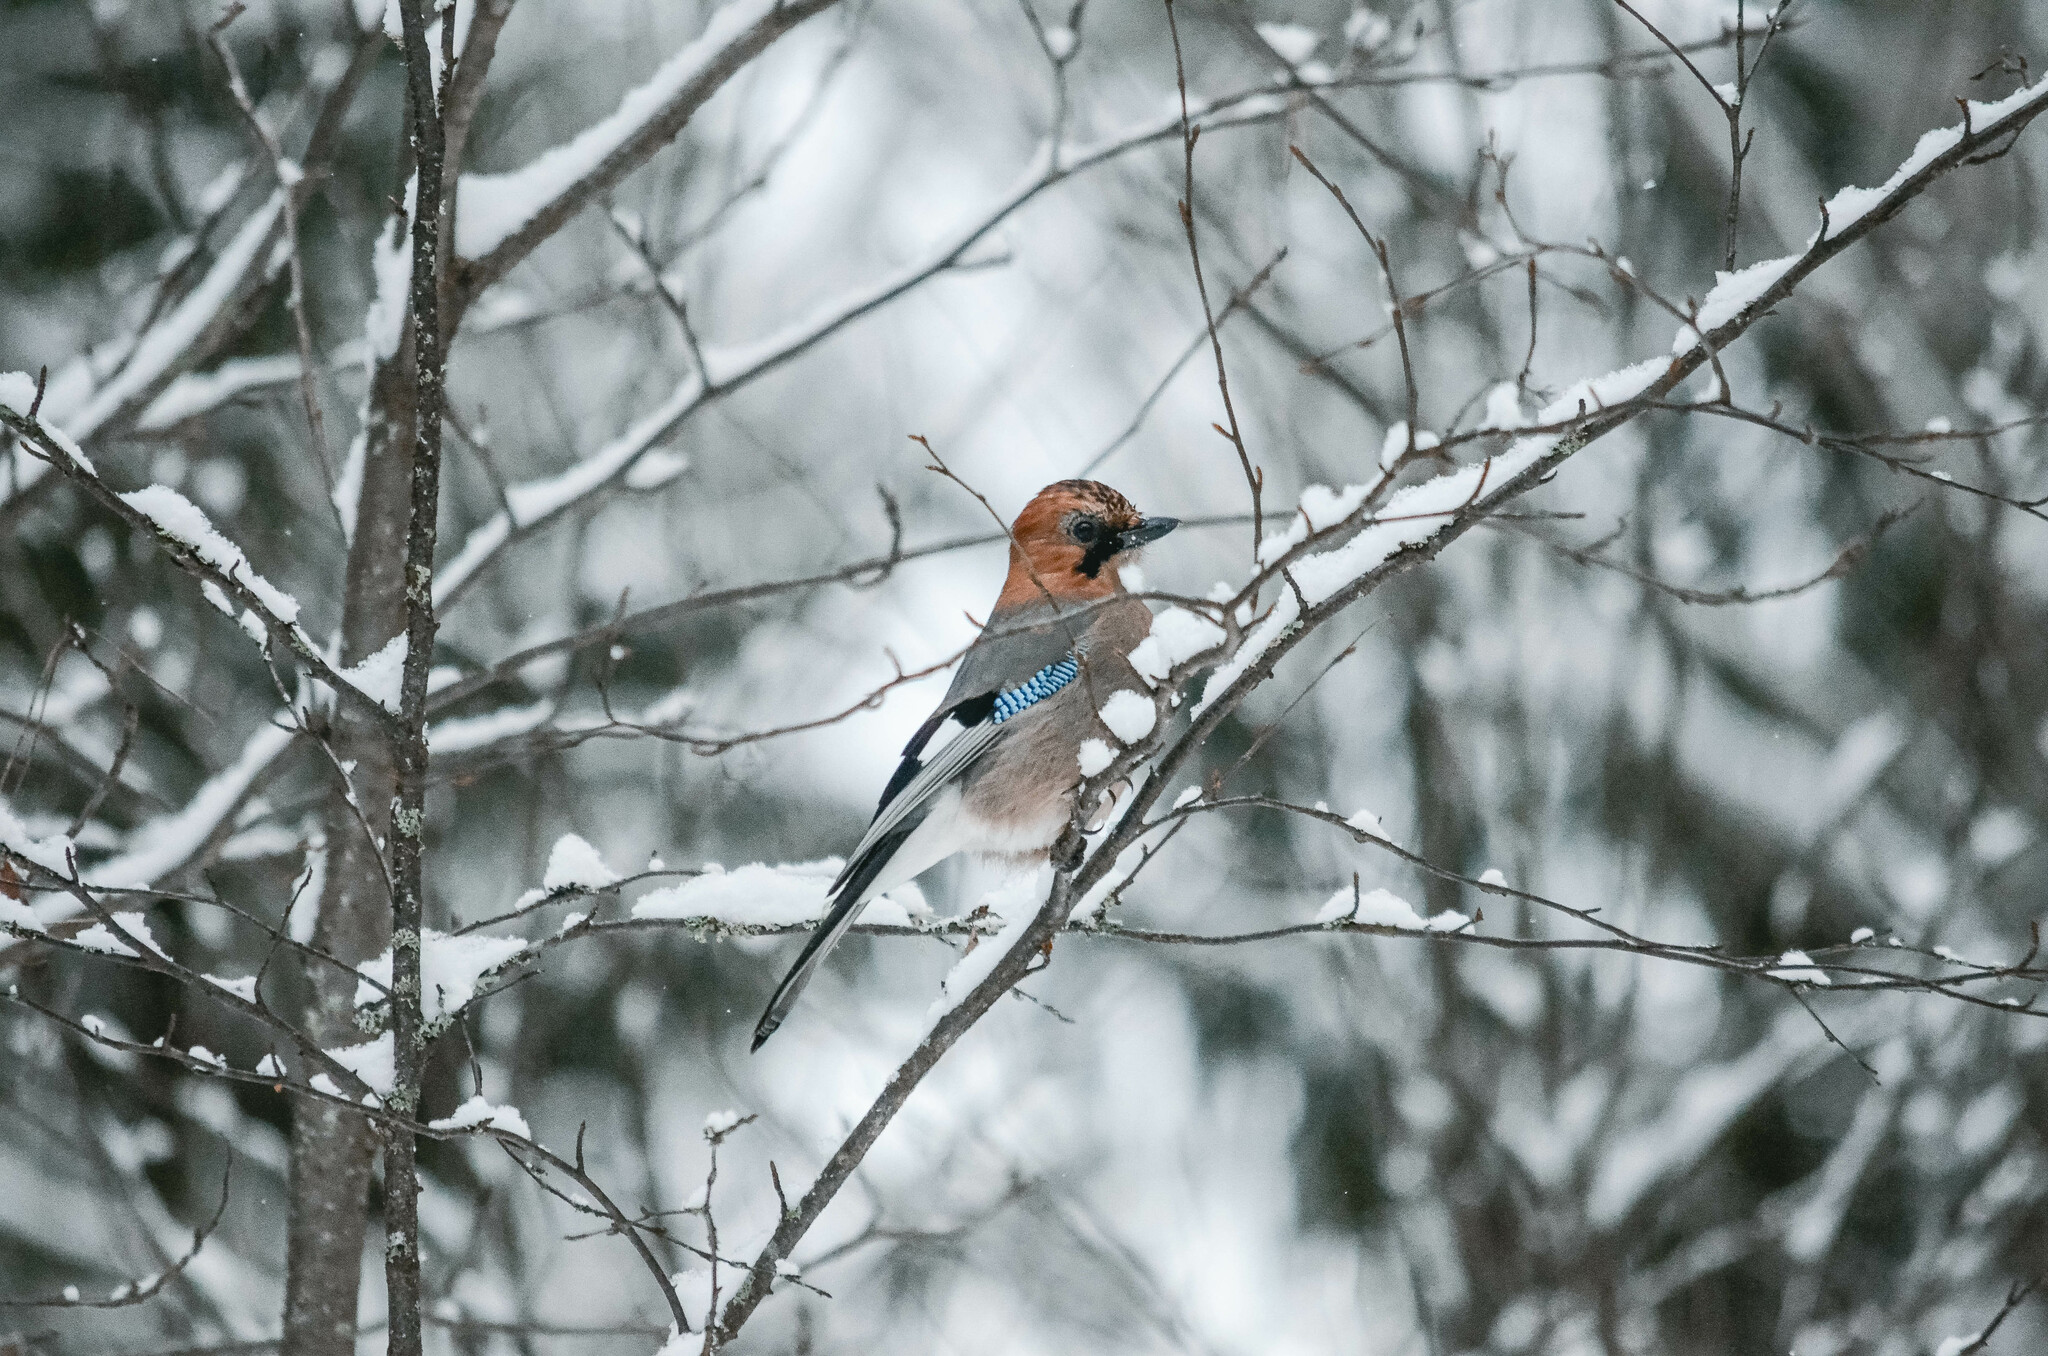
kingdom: Animalia
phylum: Chordata
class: Aves
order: Passeriformes
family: Corvidae
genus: Garrulus
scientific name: Garrulus glandarius
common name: Eurasian jay
